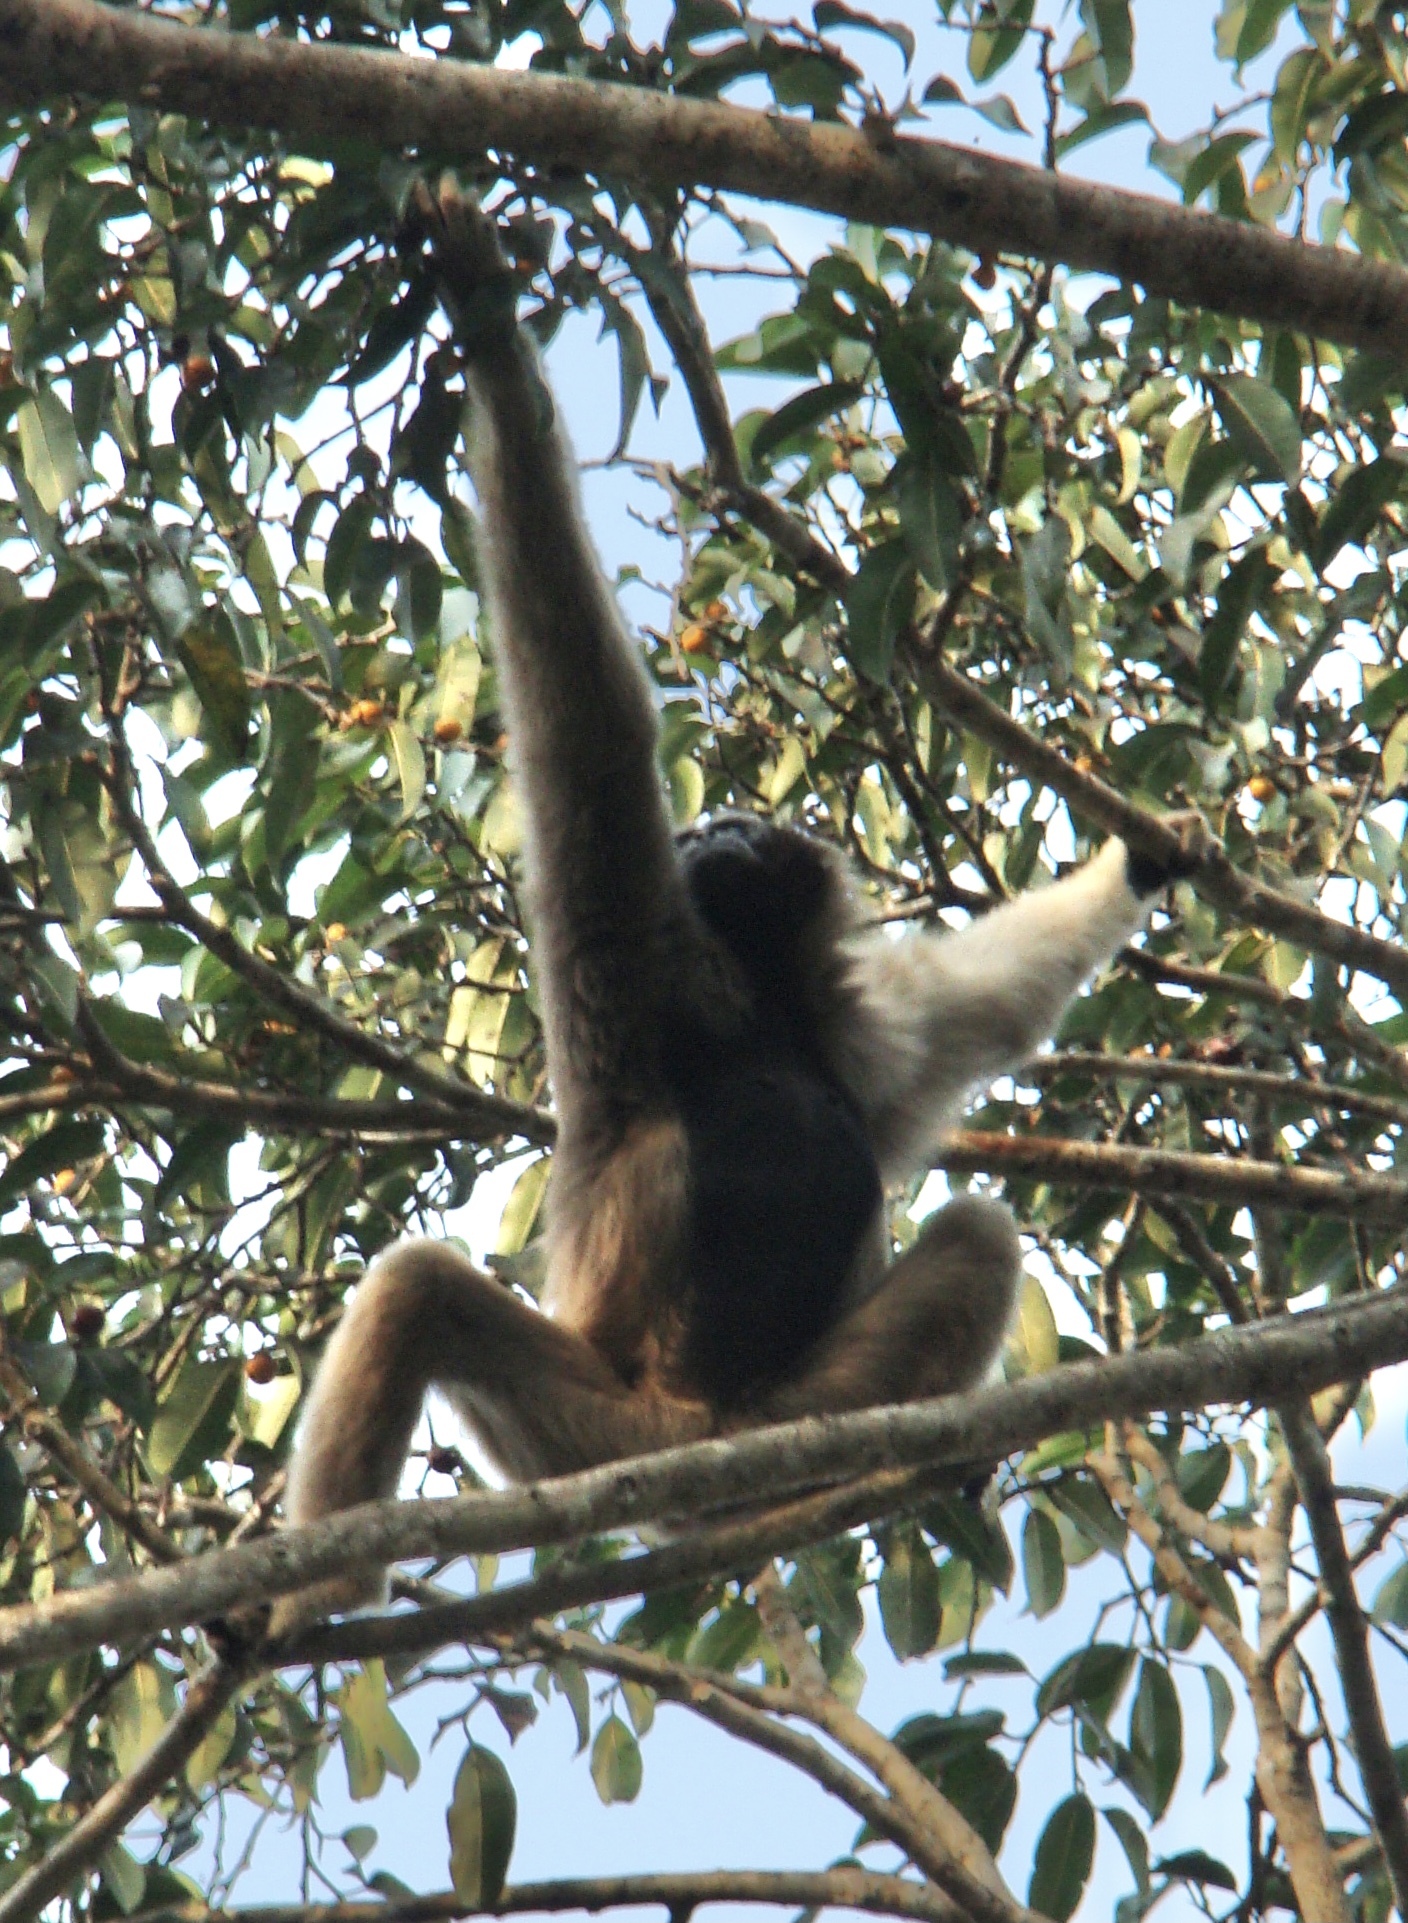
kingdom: Animalia
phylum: Chordata
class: Mammalia
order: Primates
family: Hylobatidae
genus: Hylobates
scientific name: Hylobates pileatus
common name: Pileated gibbon
